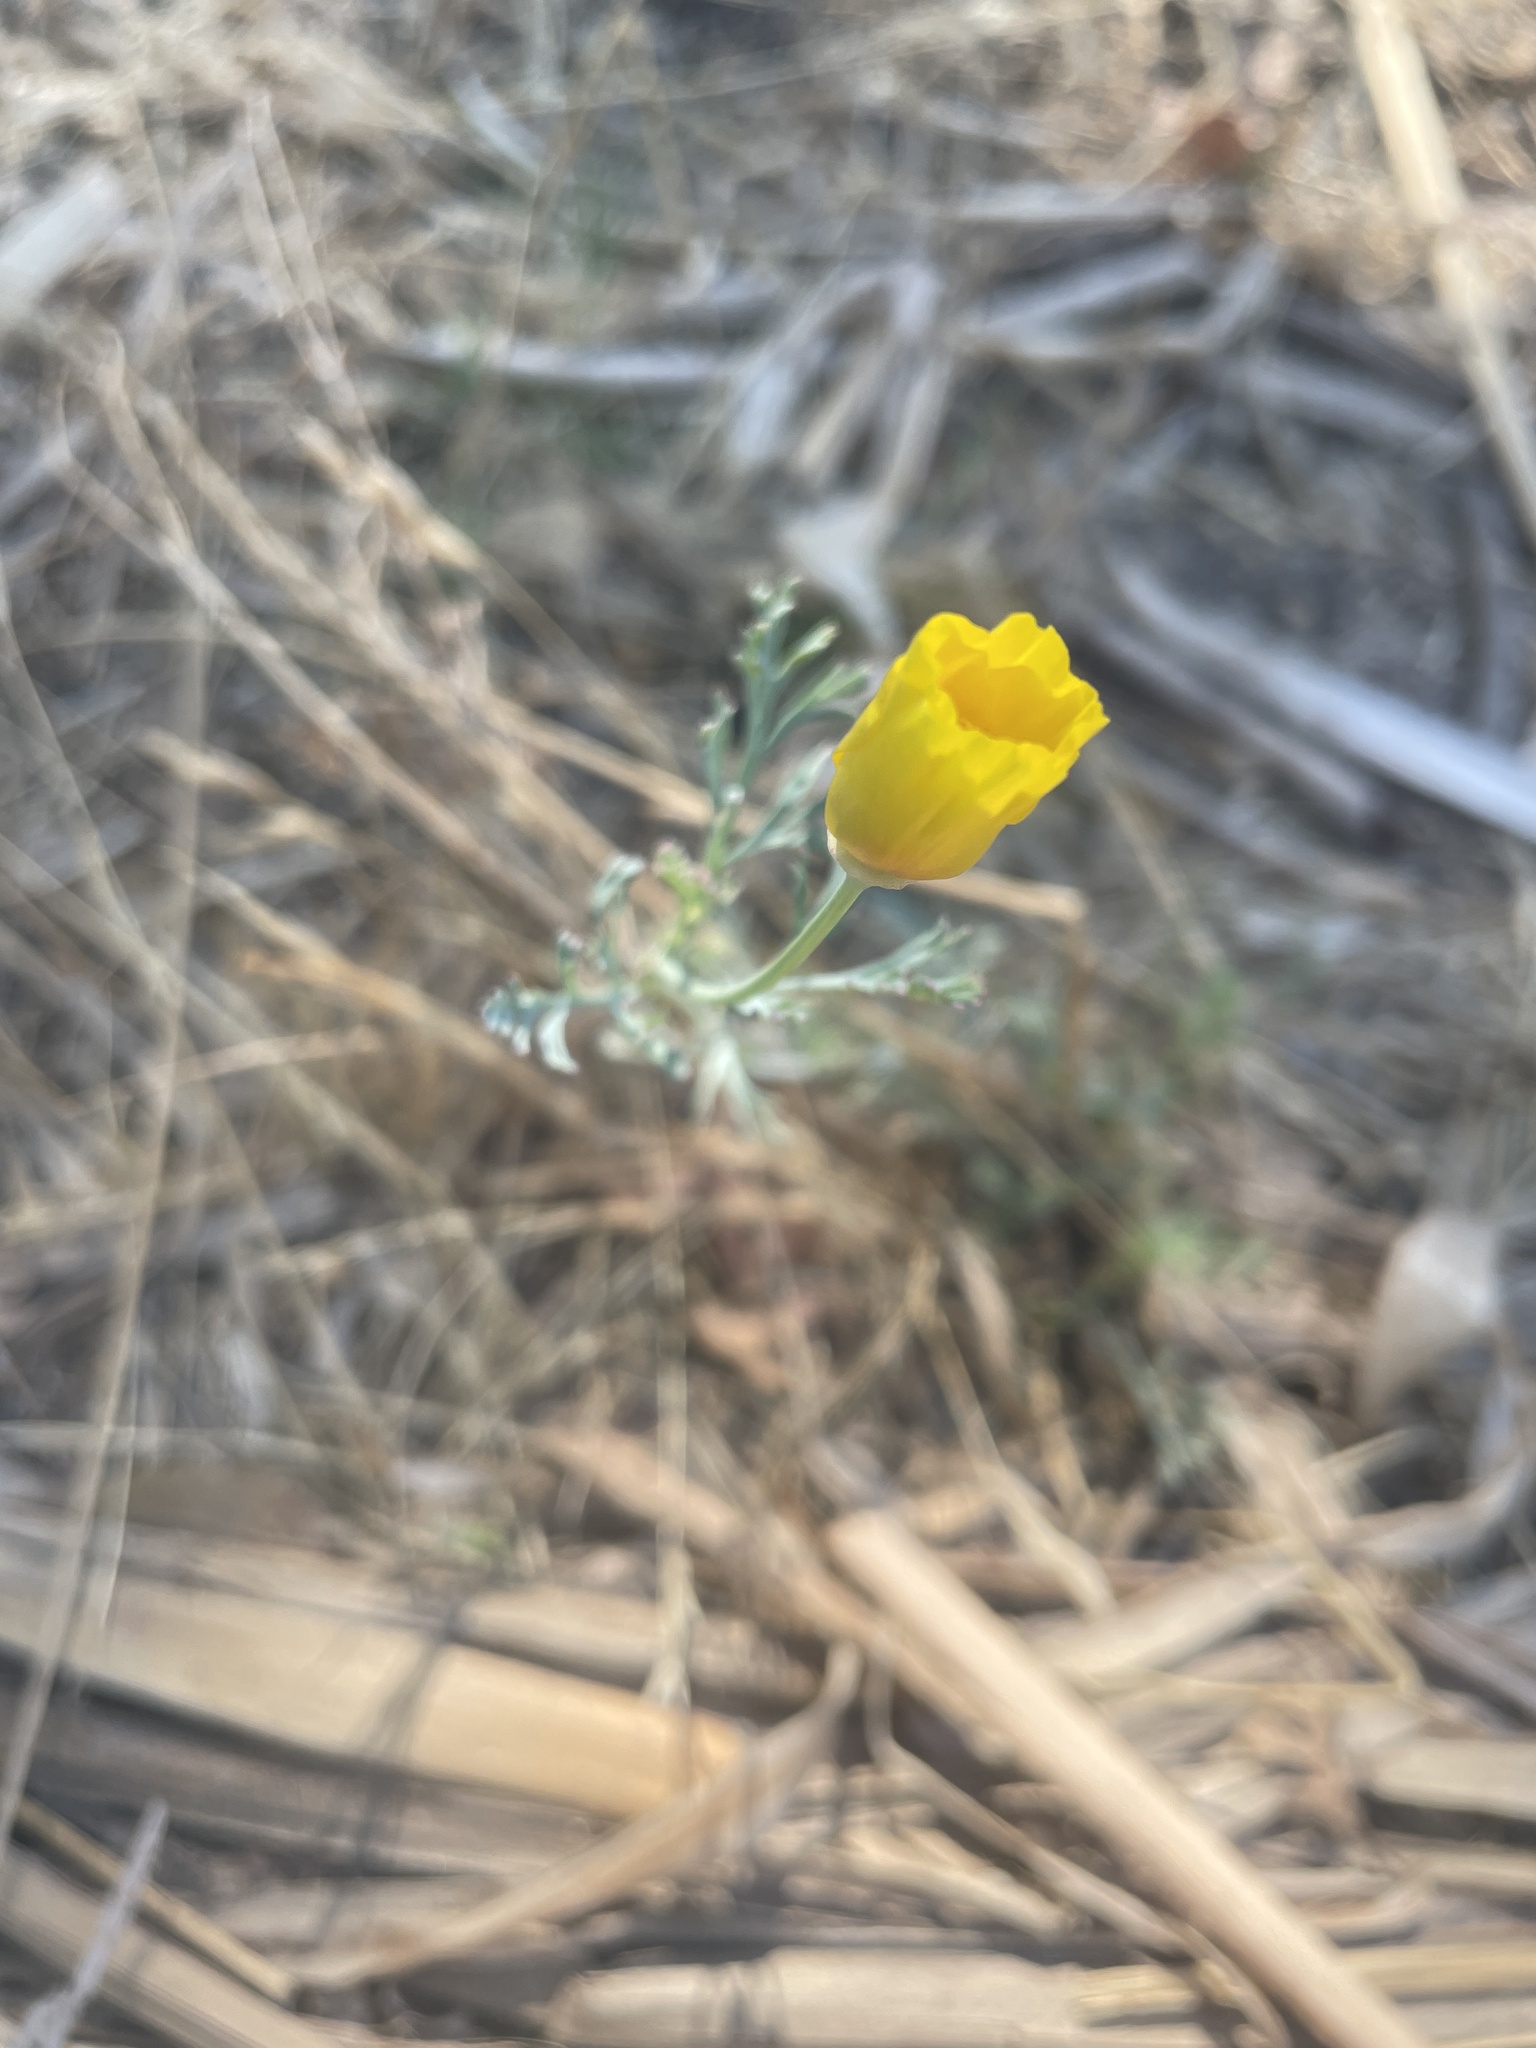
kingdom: Plantae
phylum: Tracheophyta
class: Magnoliopsida
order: Ranunculales
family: Papaveraceae
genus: Eschscholzia
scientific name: Eschscholzia californica
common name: California poppy
